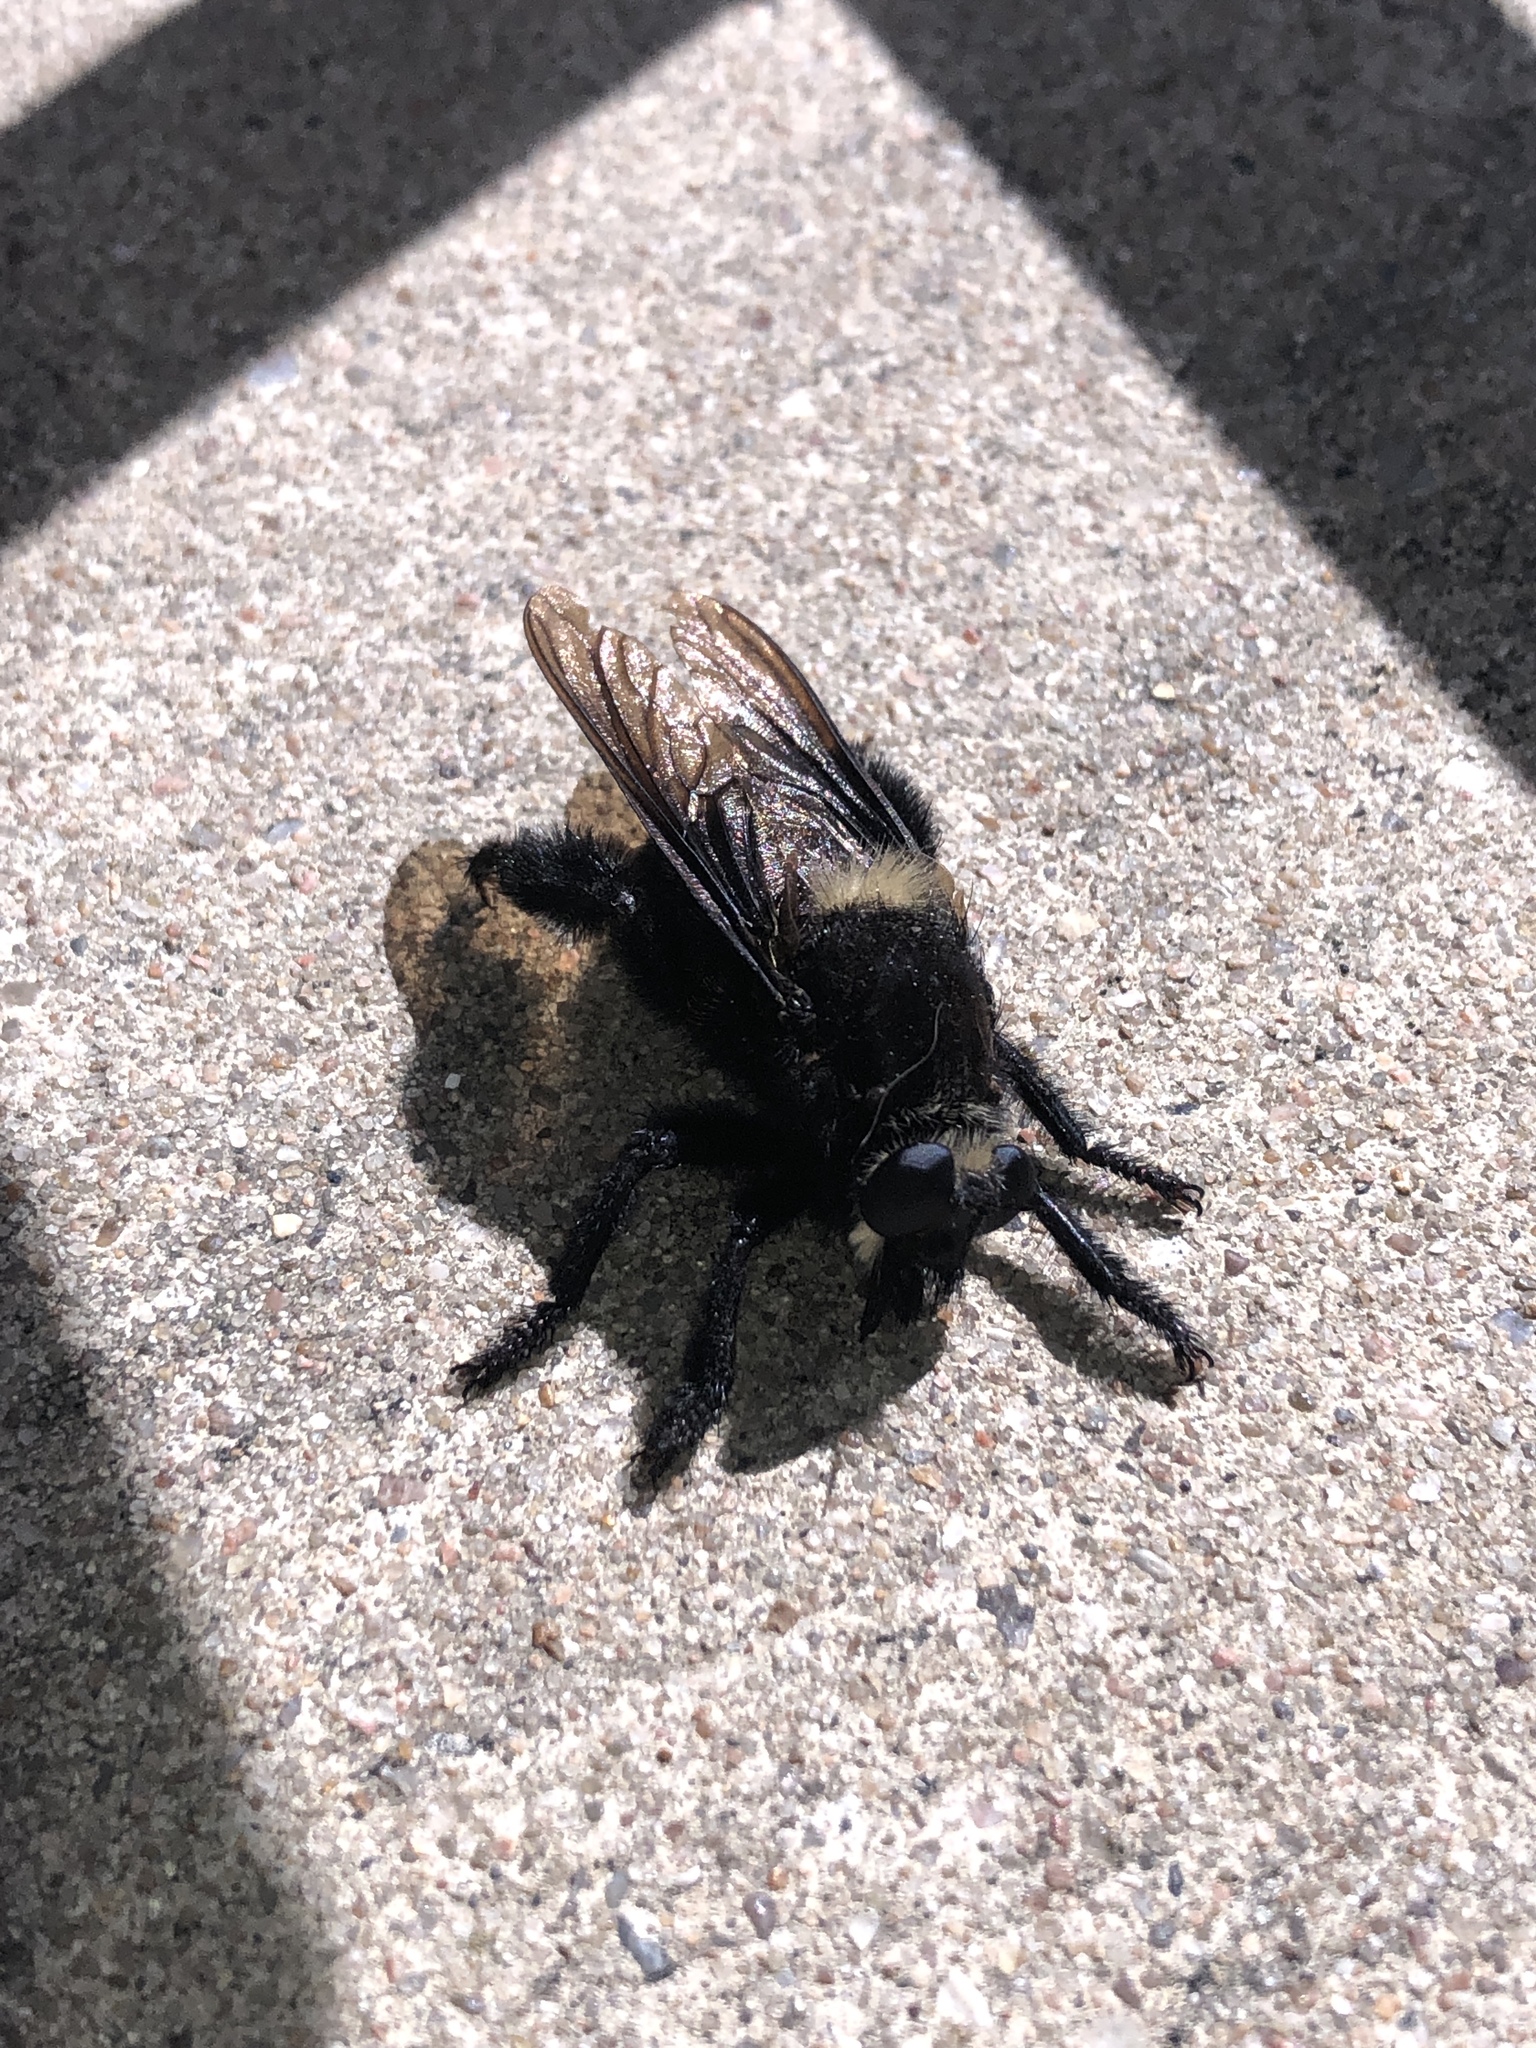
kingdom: Animalia
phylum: Arthropoda
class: Insecta
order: Diptera
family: Asilidae
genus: Mallophora
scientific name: Mallophora leschenaultii
